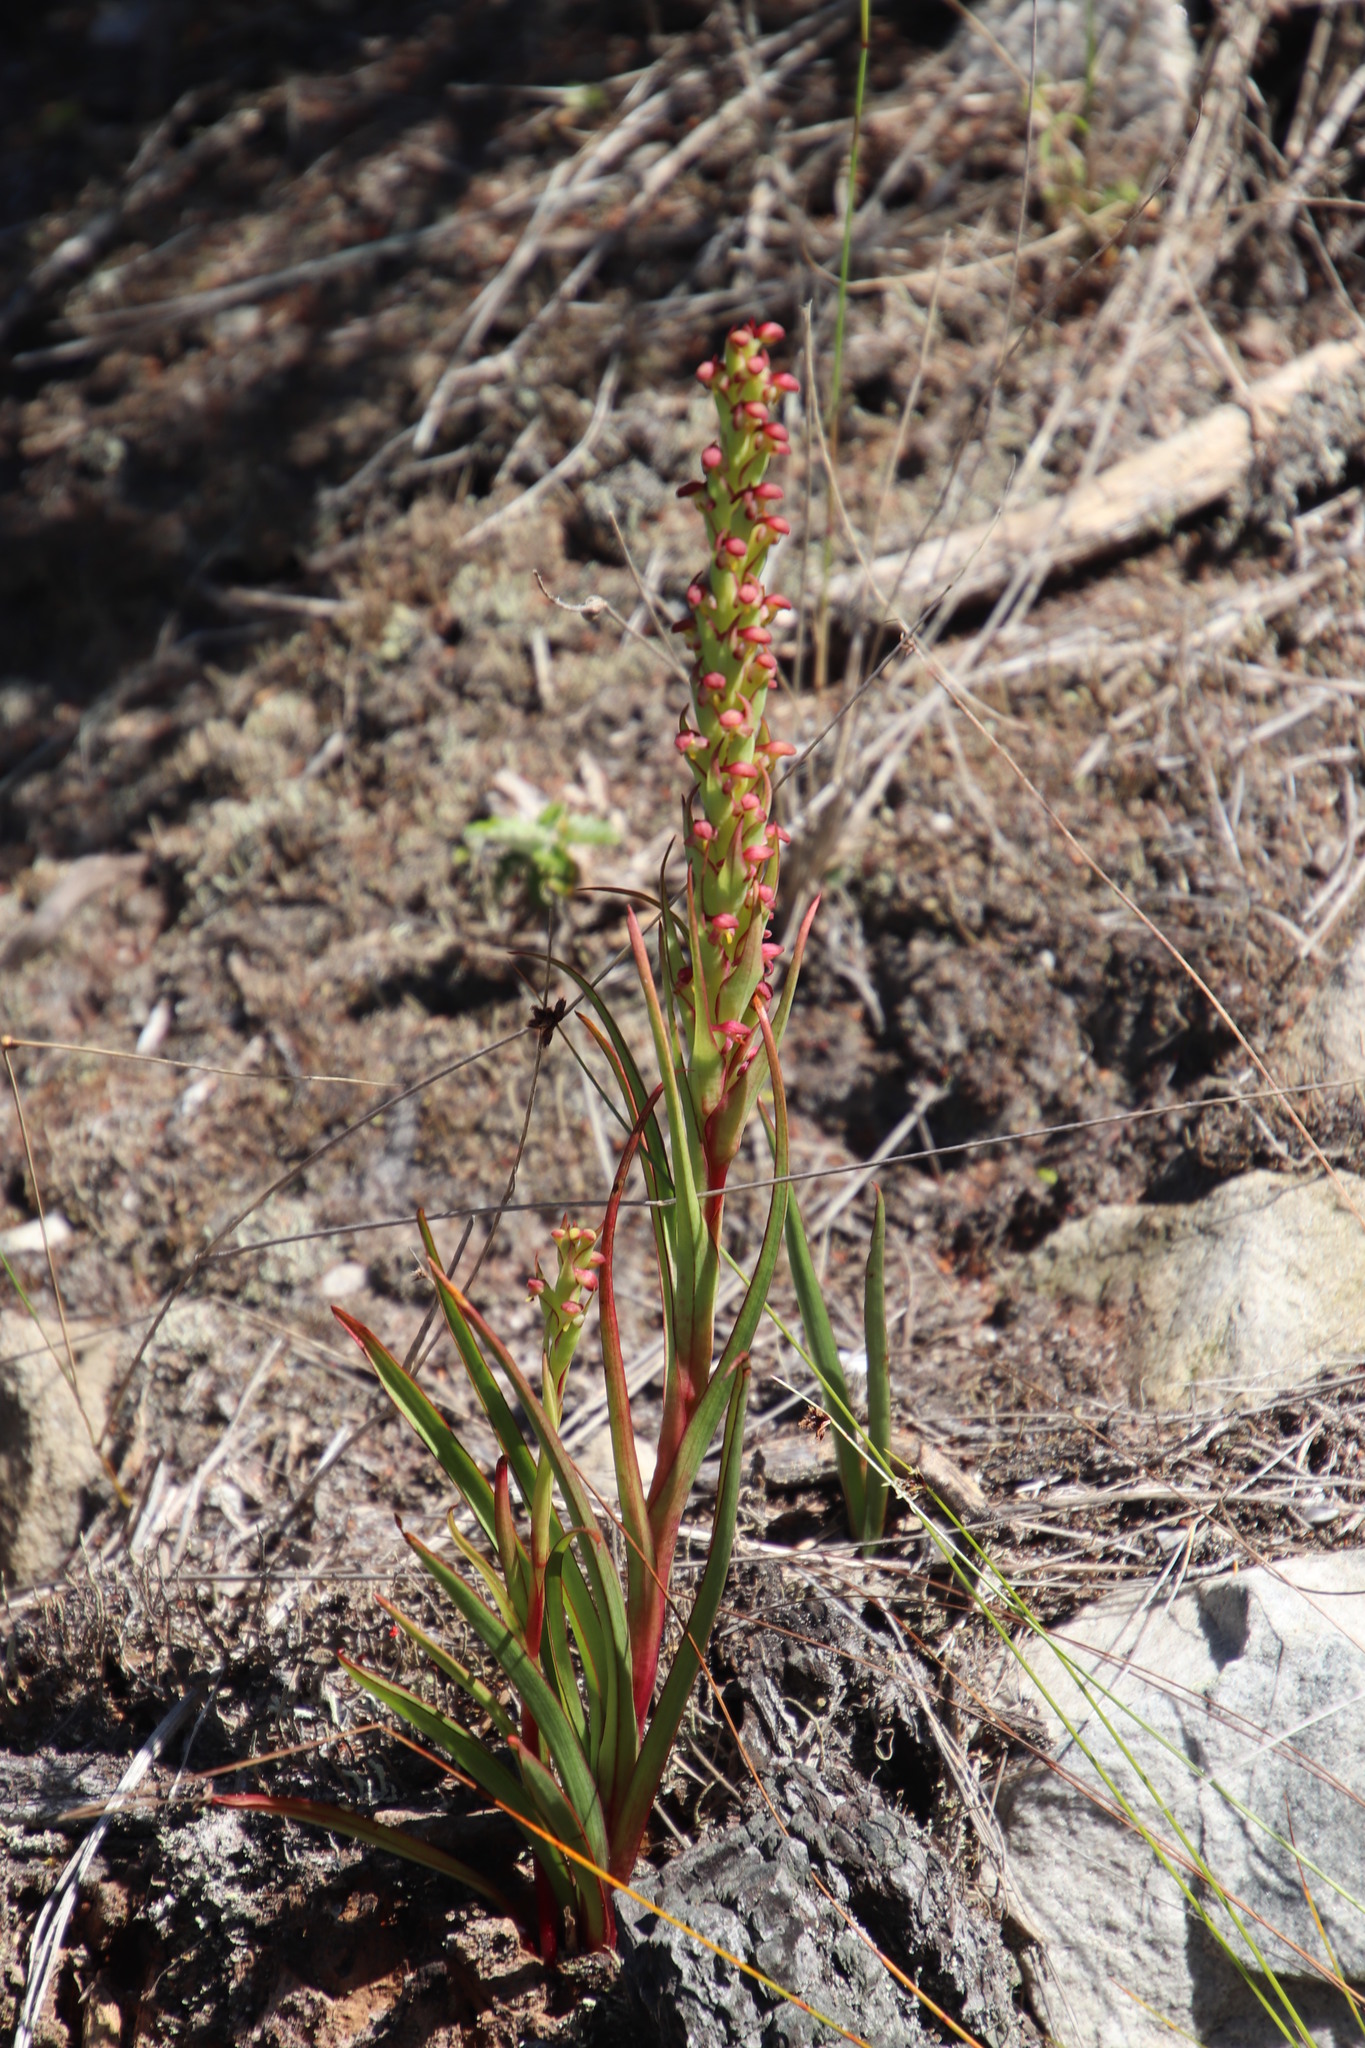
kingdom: Plantae
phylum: Tracheophyta
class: Liliopsida
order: Asparagales
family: Orchidaceae
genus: Disa
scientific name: Disa bracteata
